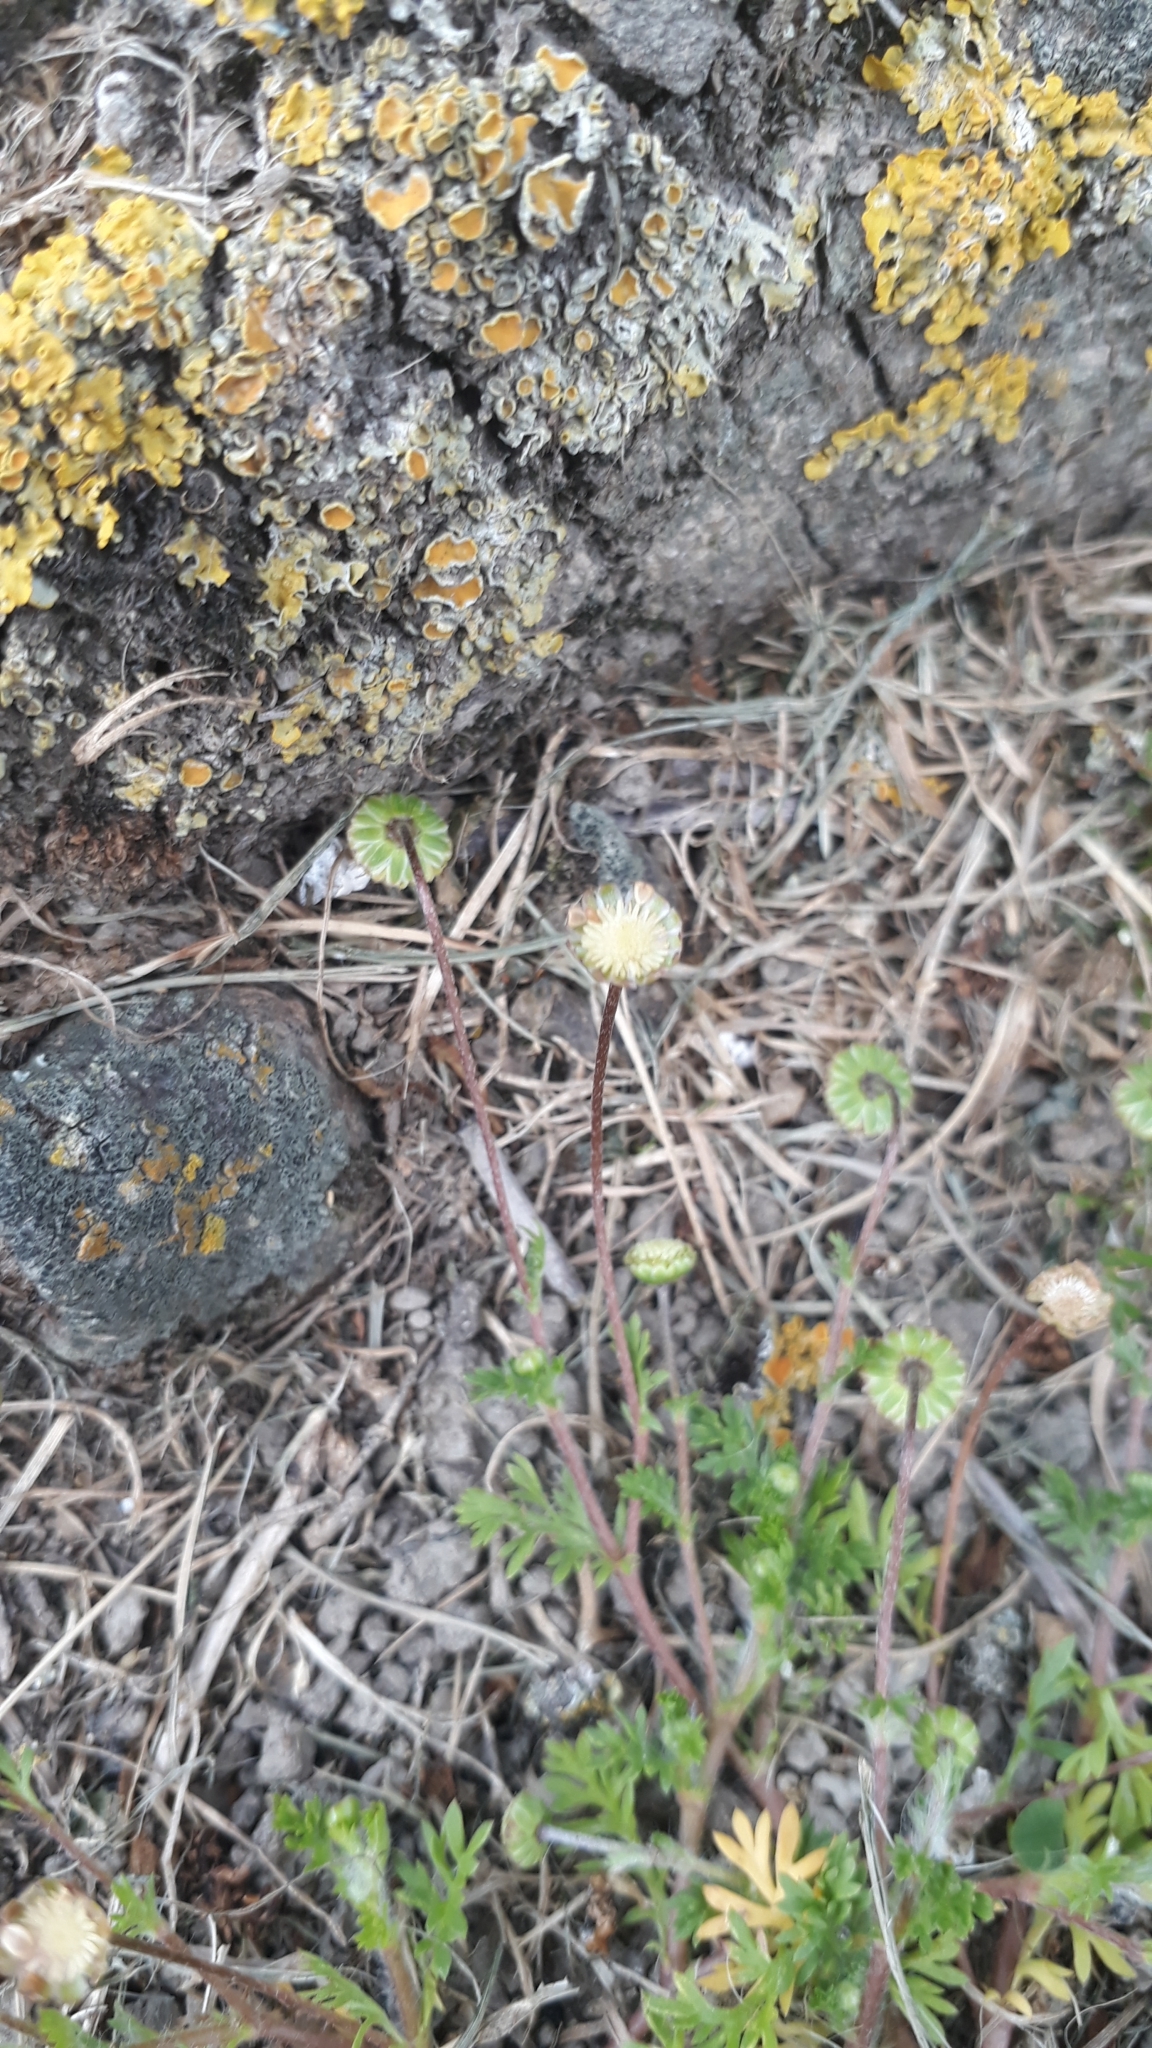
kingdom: Plantae
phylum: Tracheophyta
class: Magnoliopsida
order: Asterales
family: Asteraceae
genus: Cotula
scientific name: Cotula australis
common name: Australian waterbuttons
